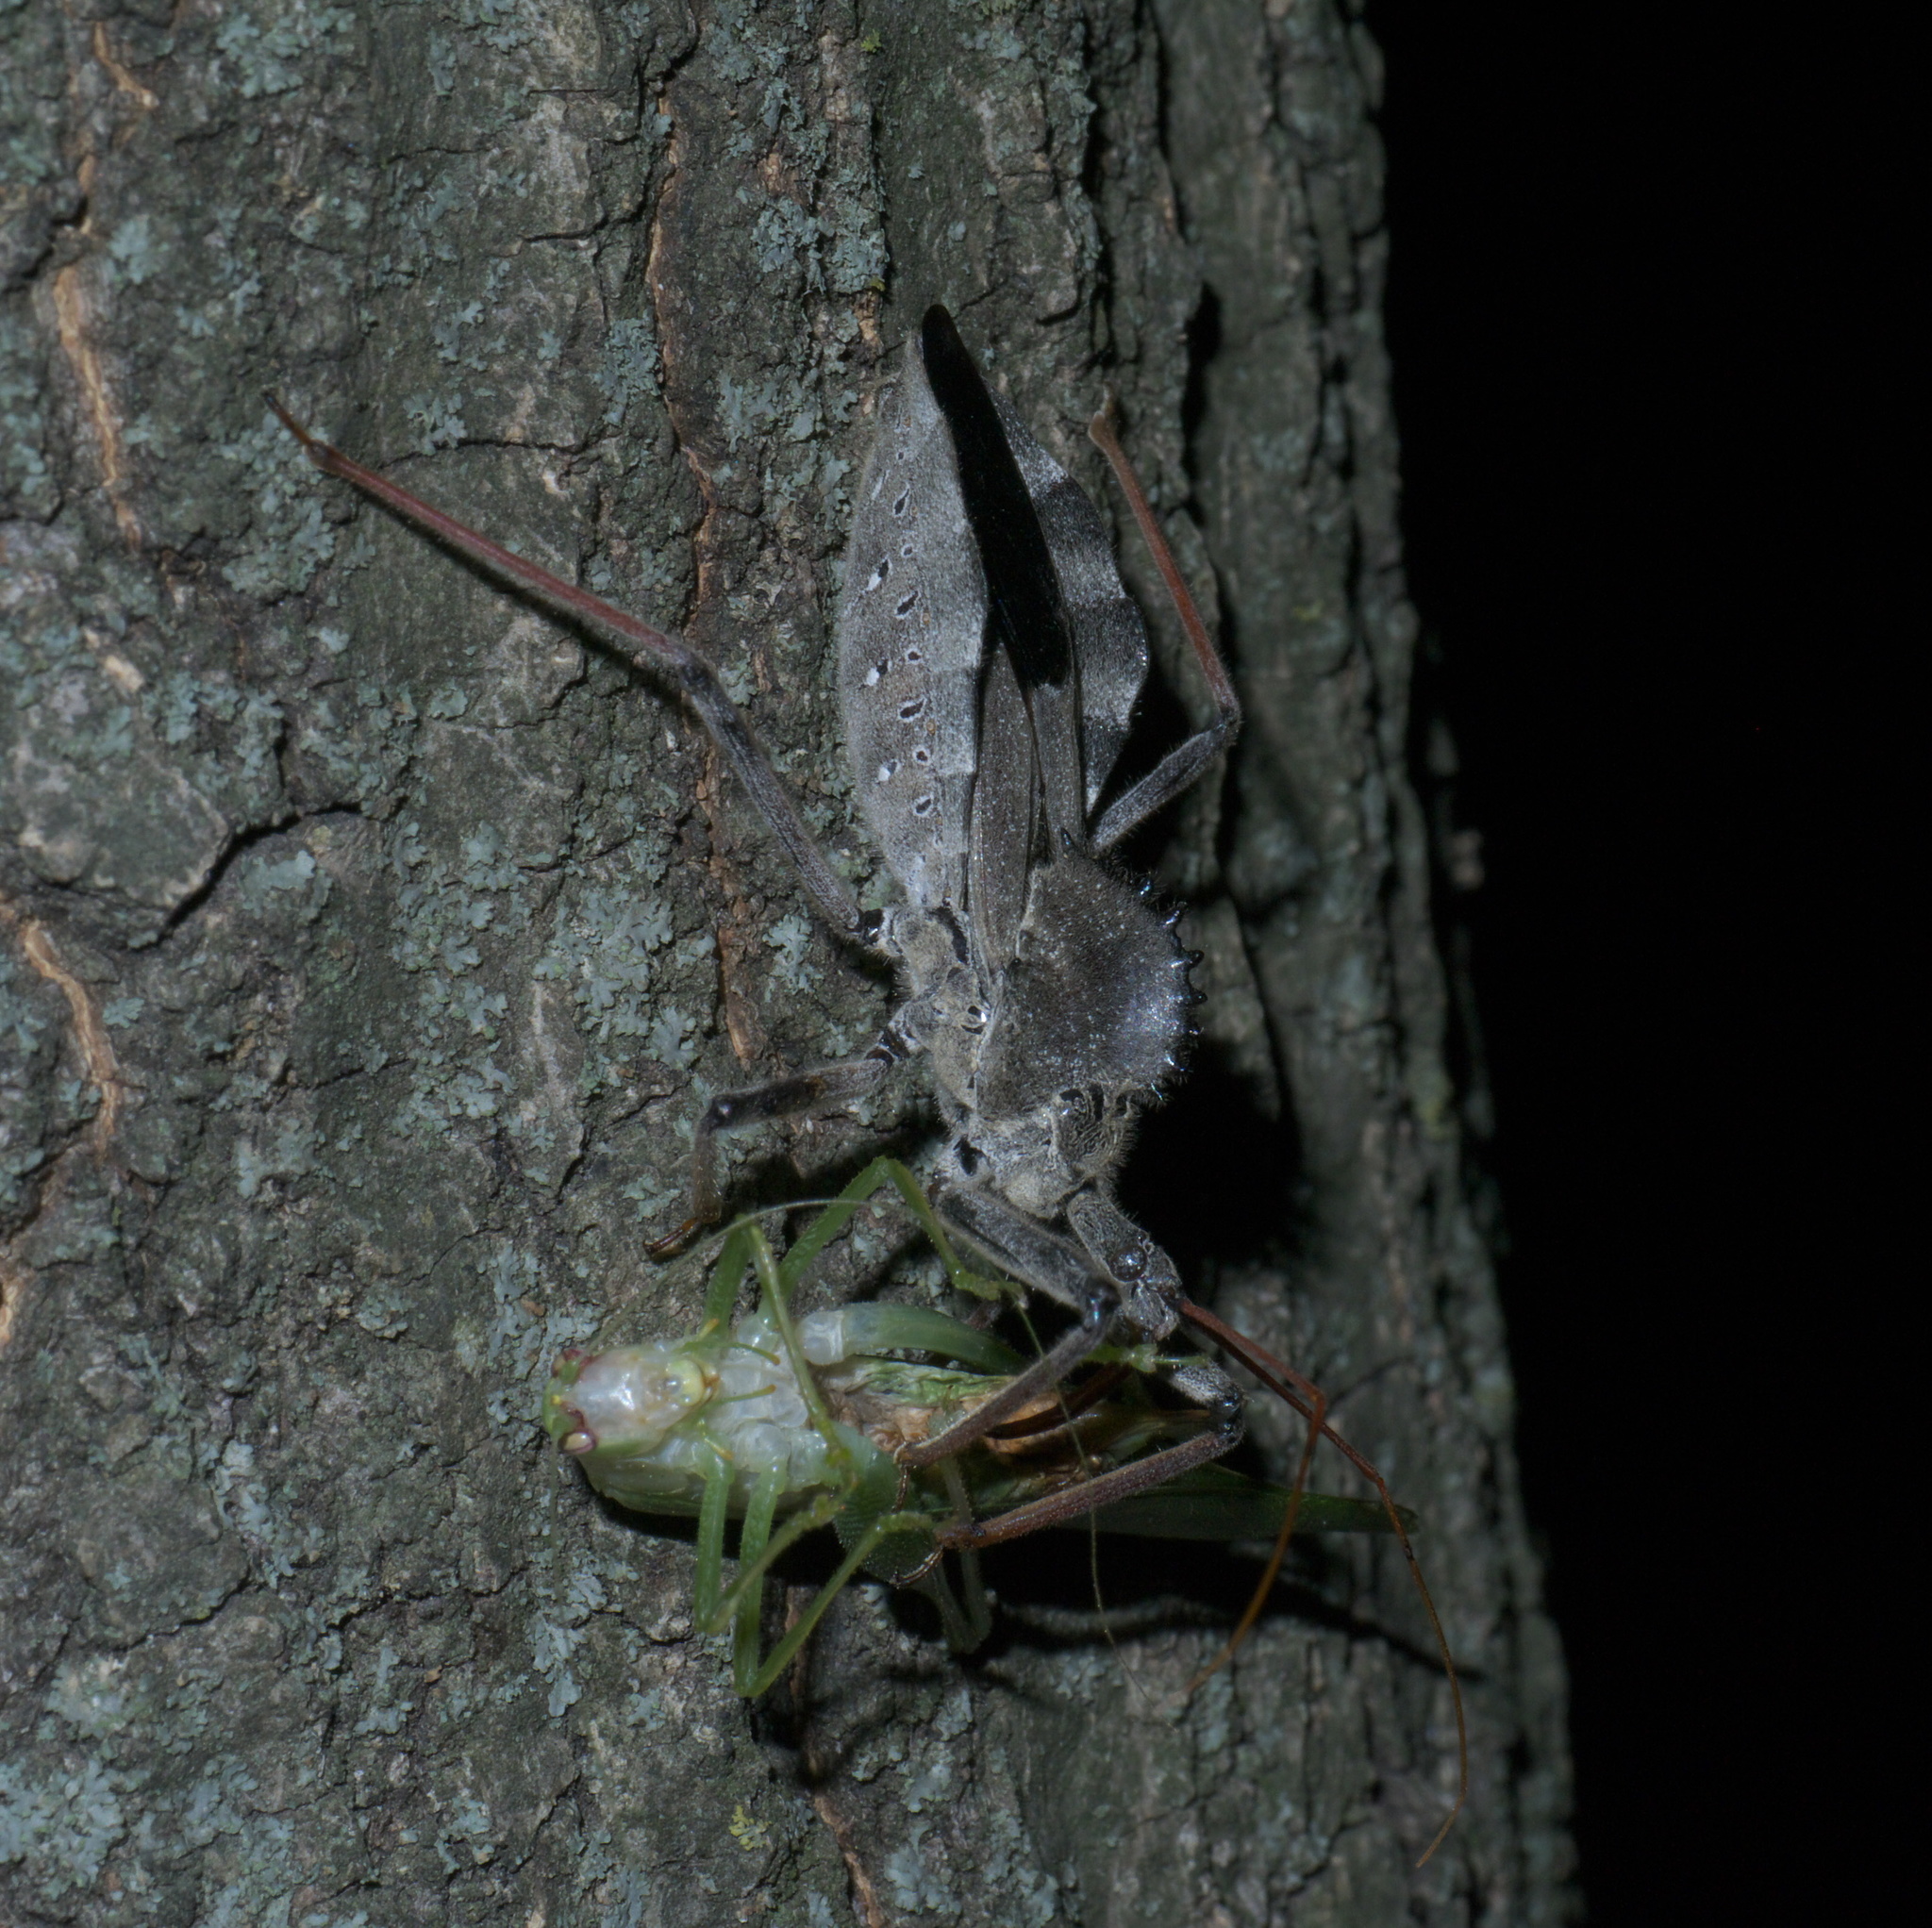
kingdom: Animalia
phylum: Arthropoda
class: Insecta
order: Hemiptera
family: Reduviidae
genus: Arilus
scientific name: Arilus cristatus
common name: North american wheel bug
